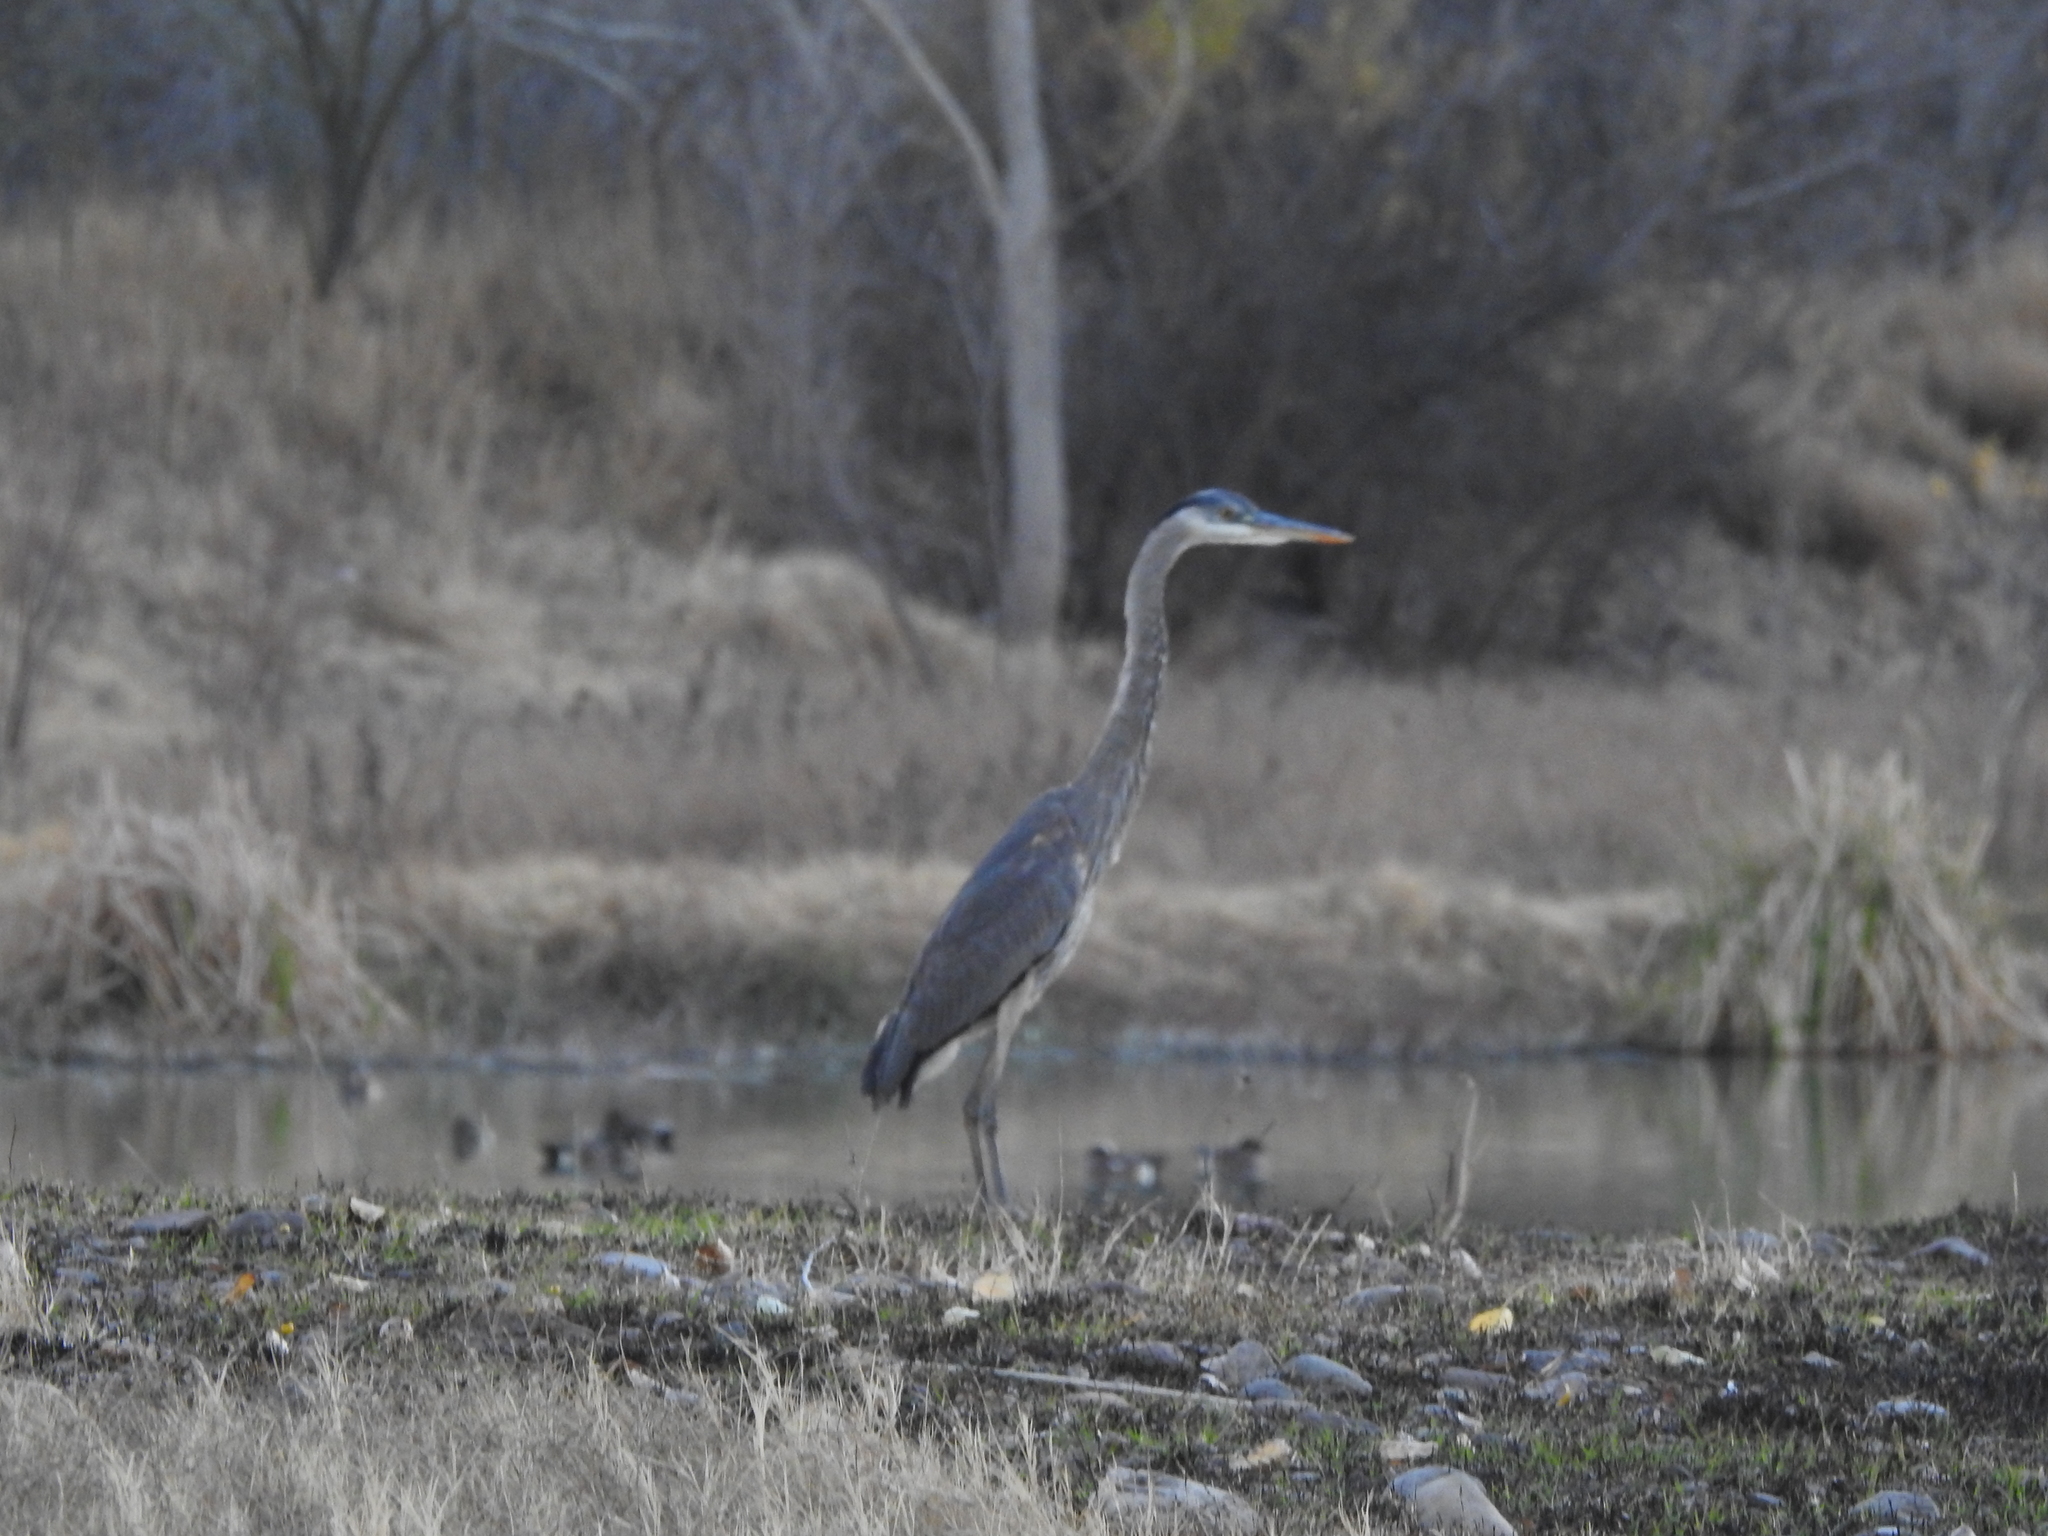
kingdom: Animalia
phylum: Chordata
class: Aves
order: Pelecaniformes
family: Ardeidae
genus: Ardea
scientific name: Ardea herodias
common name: Great blue heron
